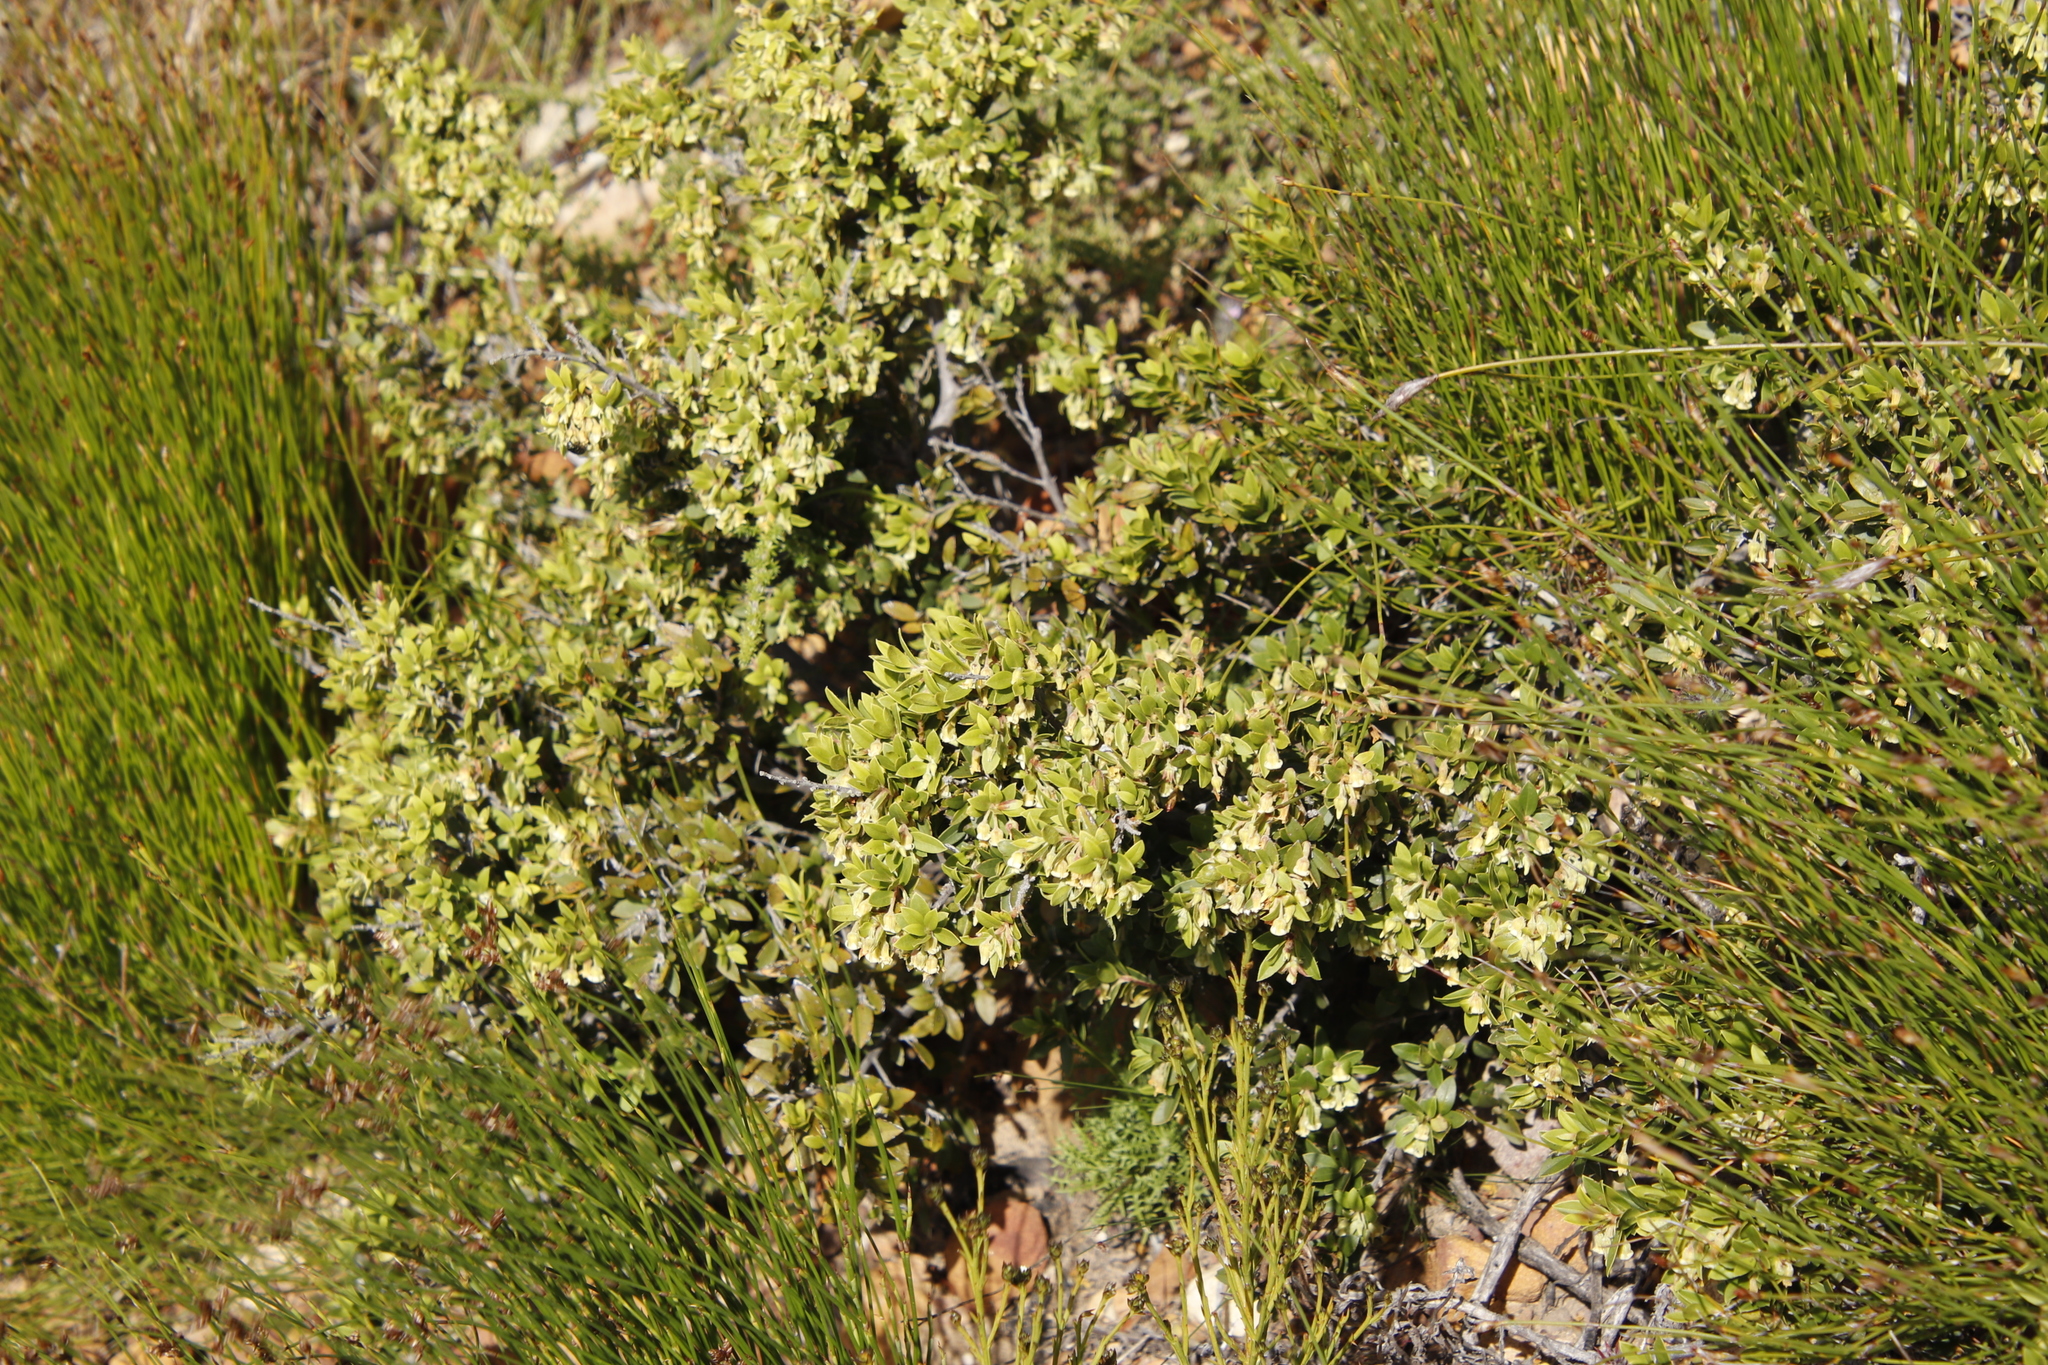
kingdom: Plantae
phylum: Tracheophyta
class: Magnoliopsida
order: Ericales
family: Ebenaceae
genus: Diospyros
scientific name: Diospyros glabra
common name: Fynbos star apple
